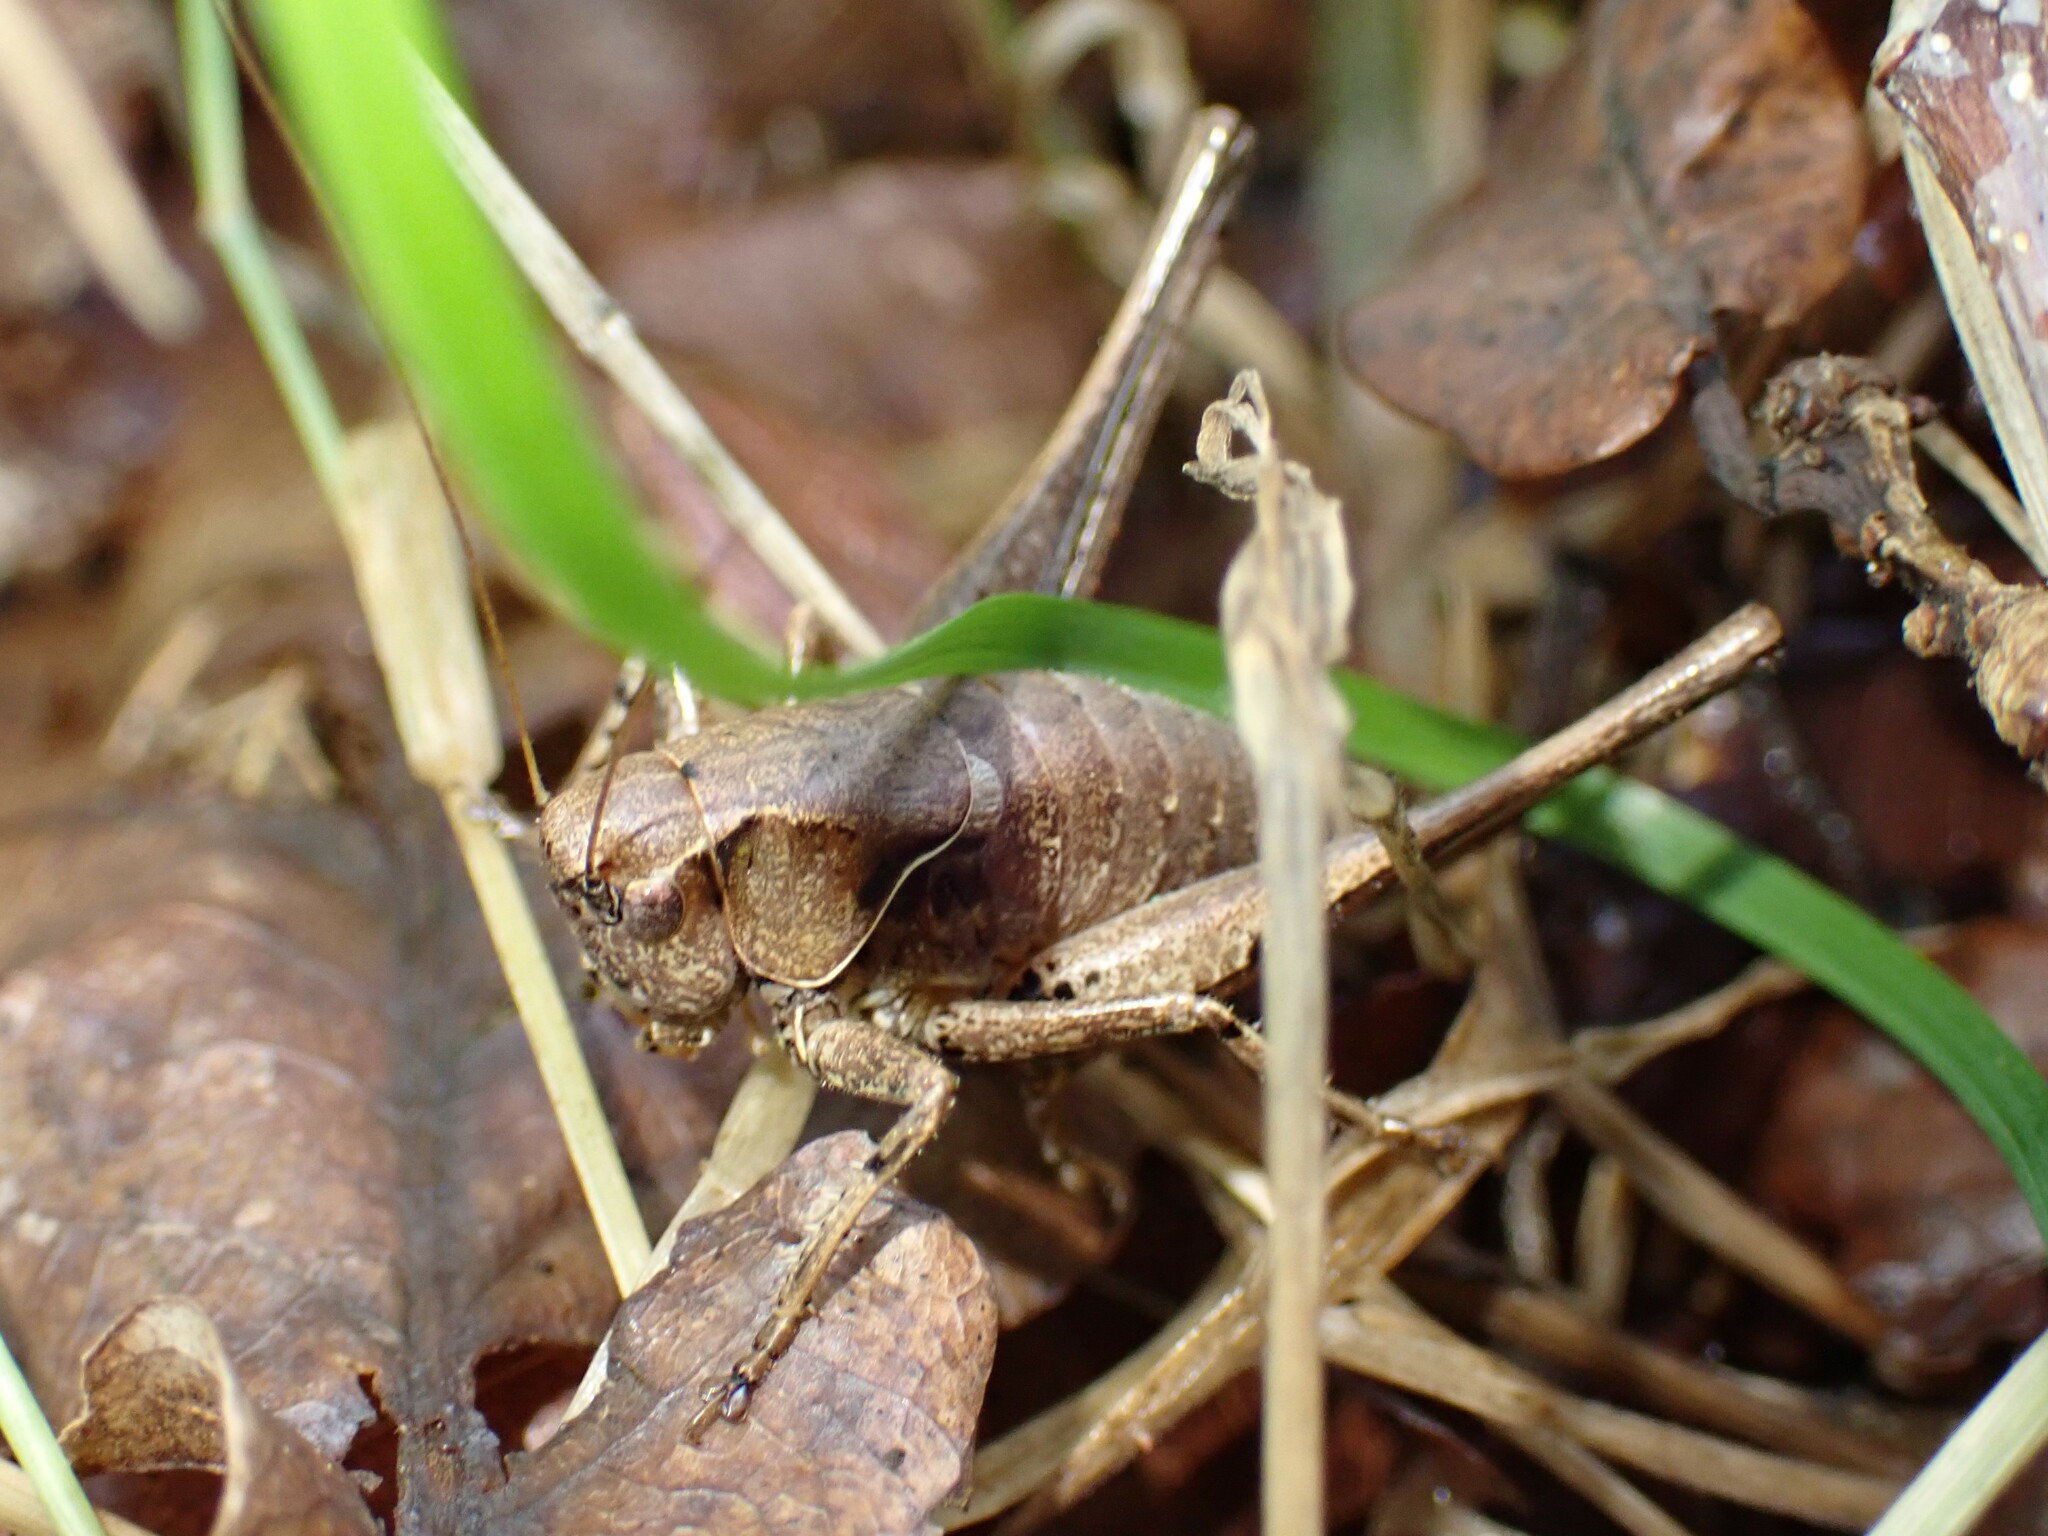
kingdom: Animalia
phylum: Arthropoda
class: Insecta
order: Orthoptera
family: Tettigoniidae
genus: Pholidoptera
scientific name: Pholidoptera griseoaptera
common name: Dark bush-cricket
